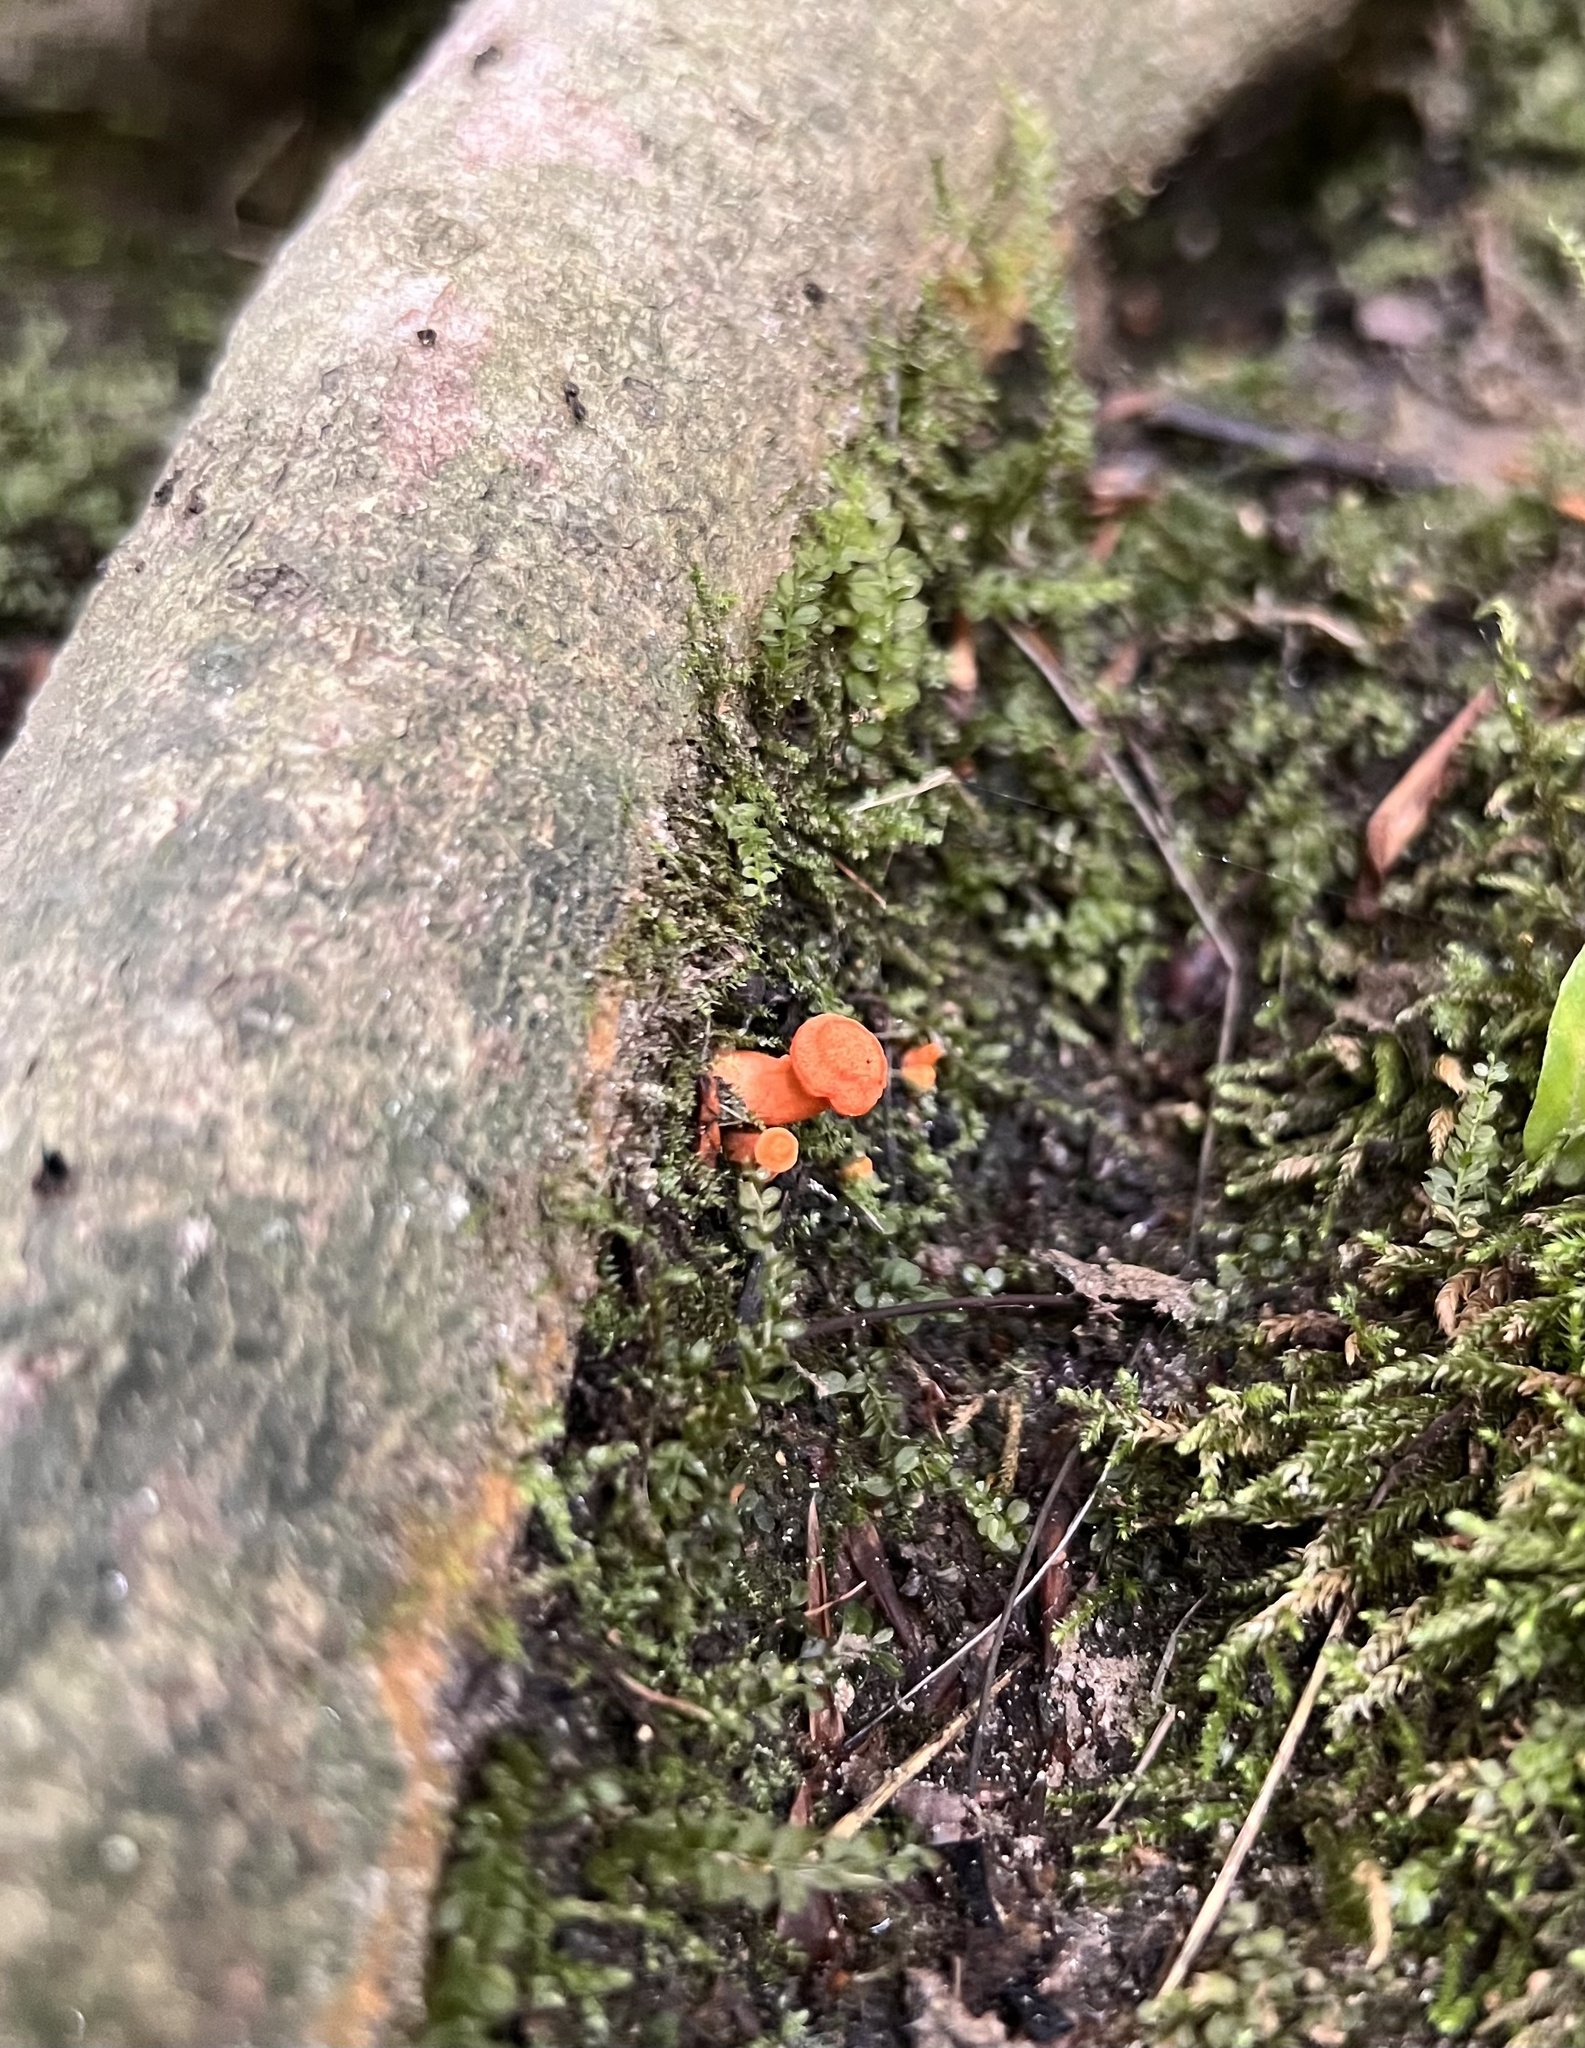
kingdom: Fungi
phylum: Basidiomycota
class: Agaricomycetes
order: Cantharellales
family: Hydnaceae
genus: Cantharellus
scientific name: Cantharellus cinnabarinus
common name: Cinnabar chanterelle
